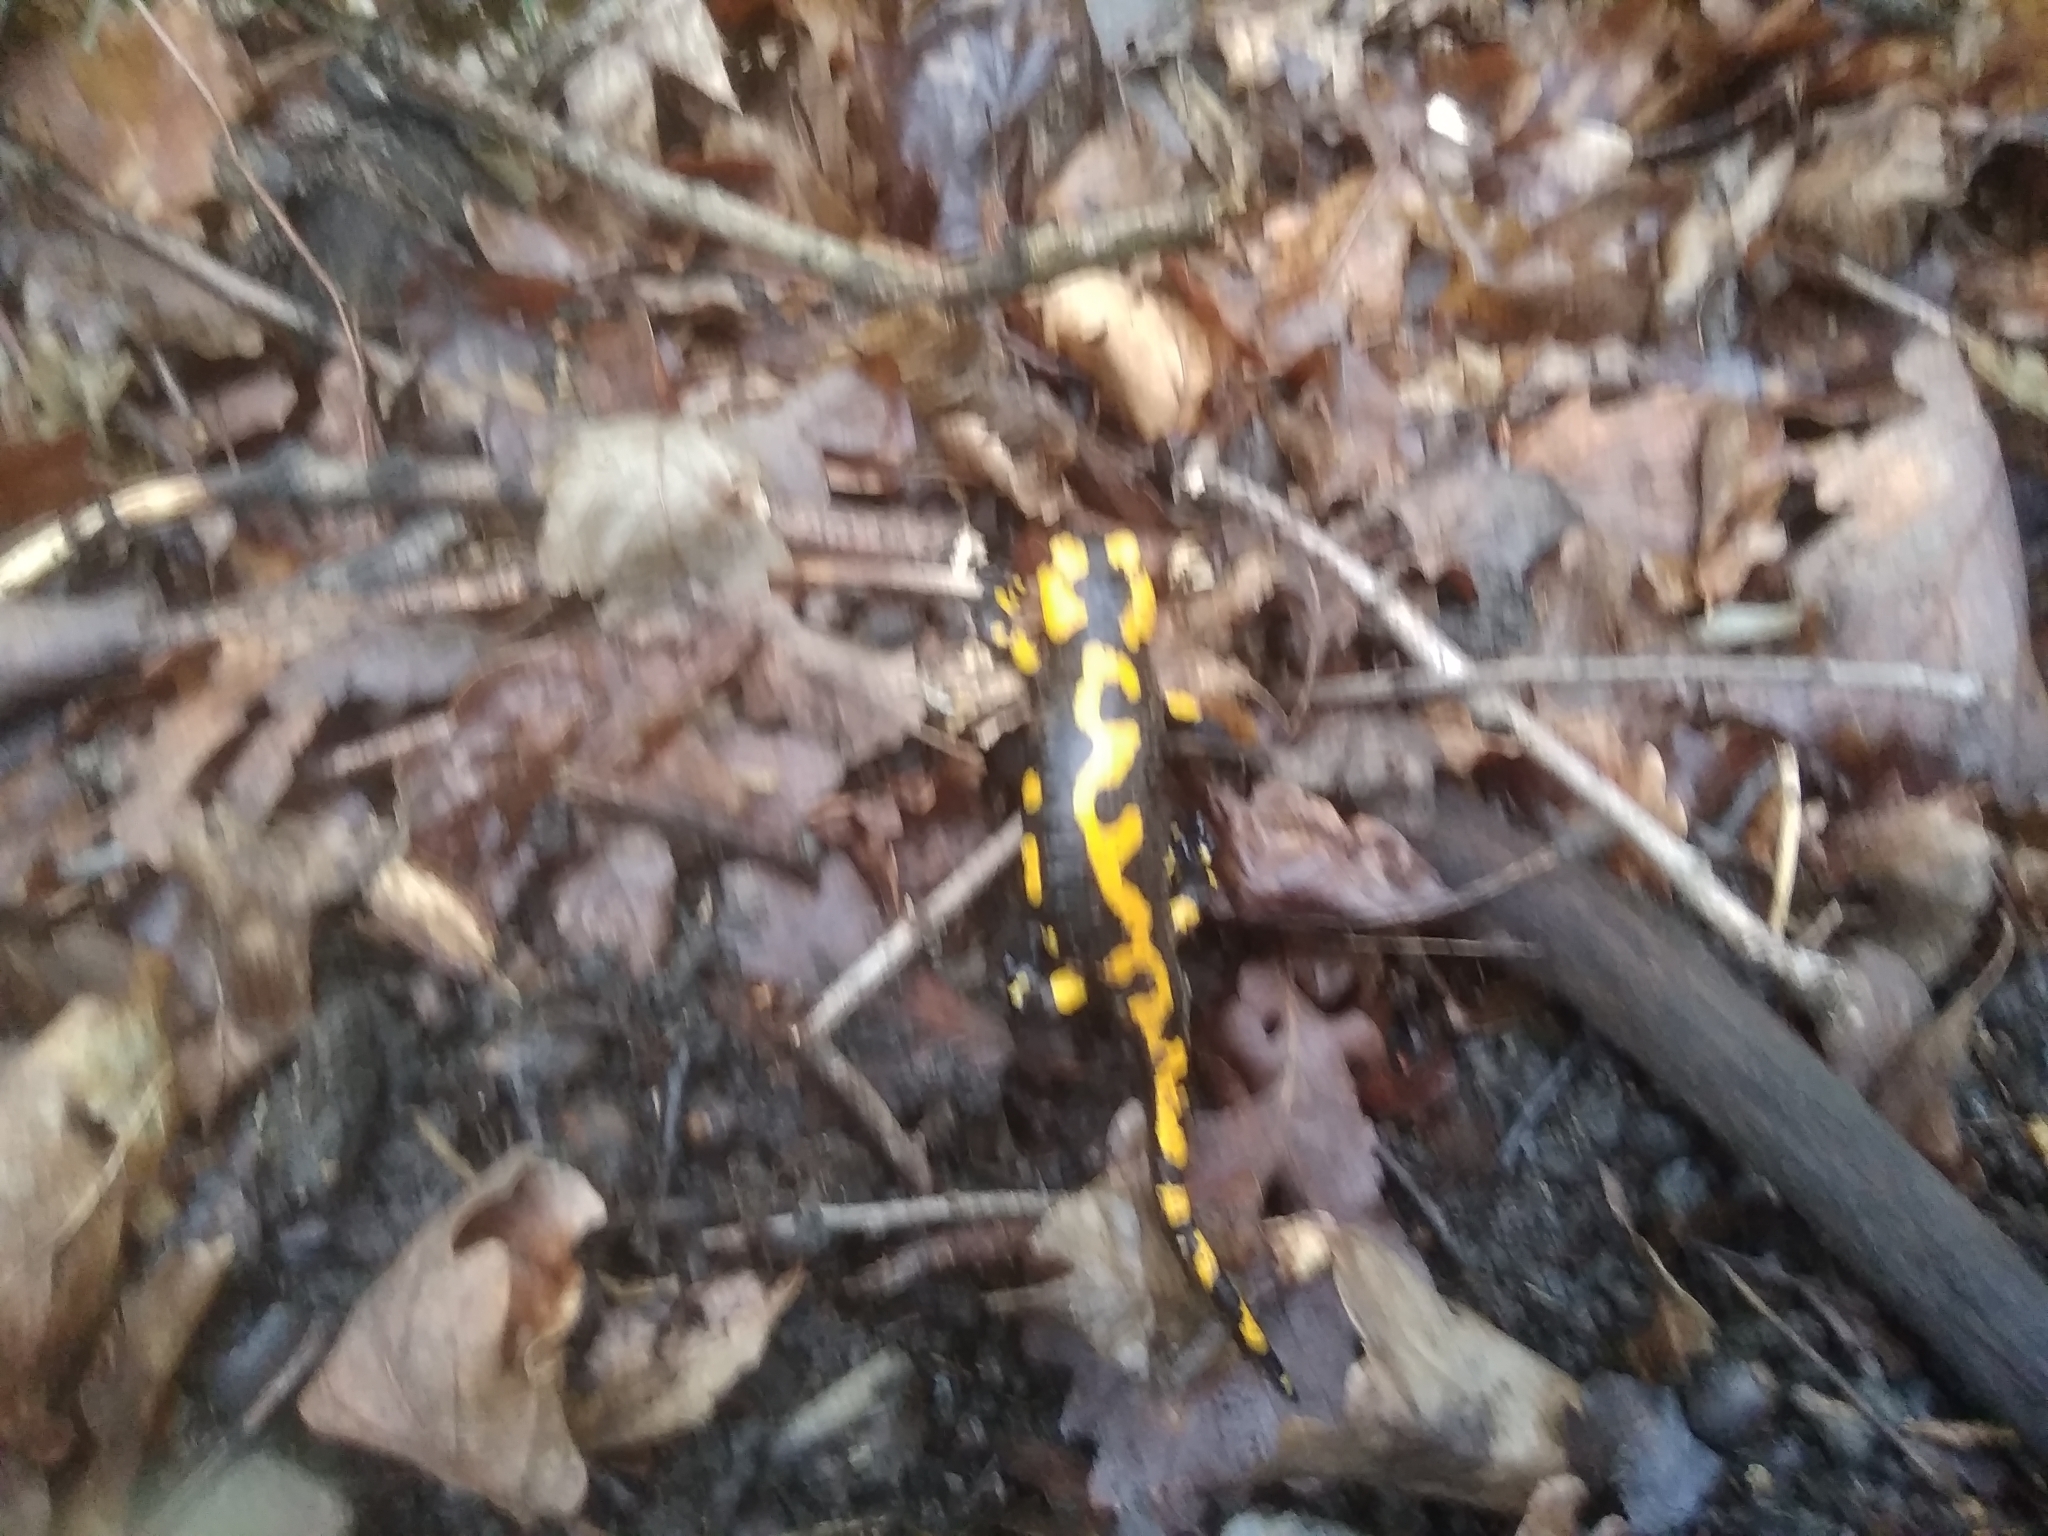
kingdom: Animalia
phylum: Chordata
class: Amphibia
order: Caudata
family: Salamandridae
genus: Salamandra
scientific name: Salamandra salamandra
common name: Fire salamander
